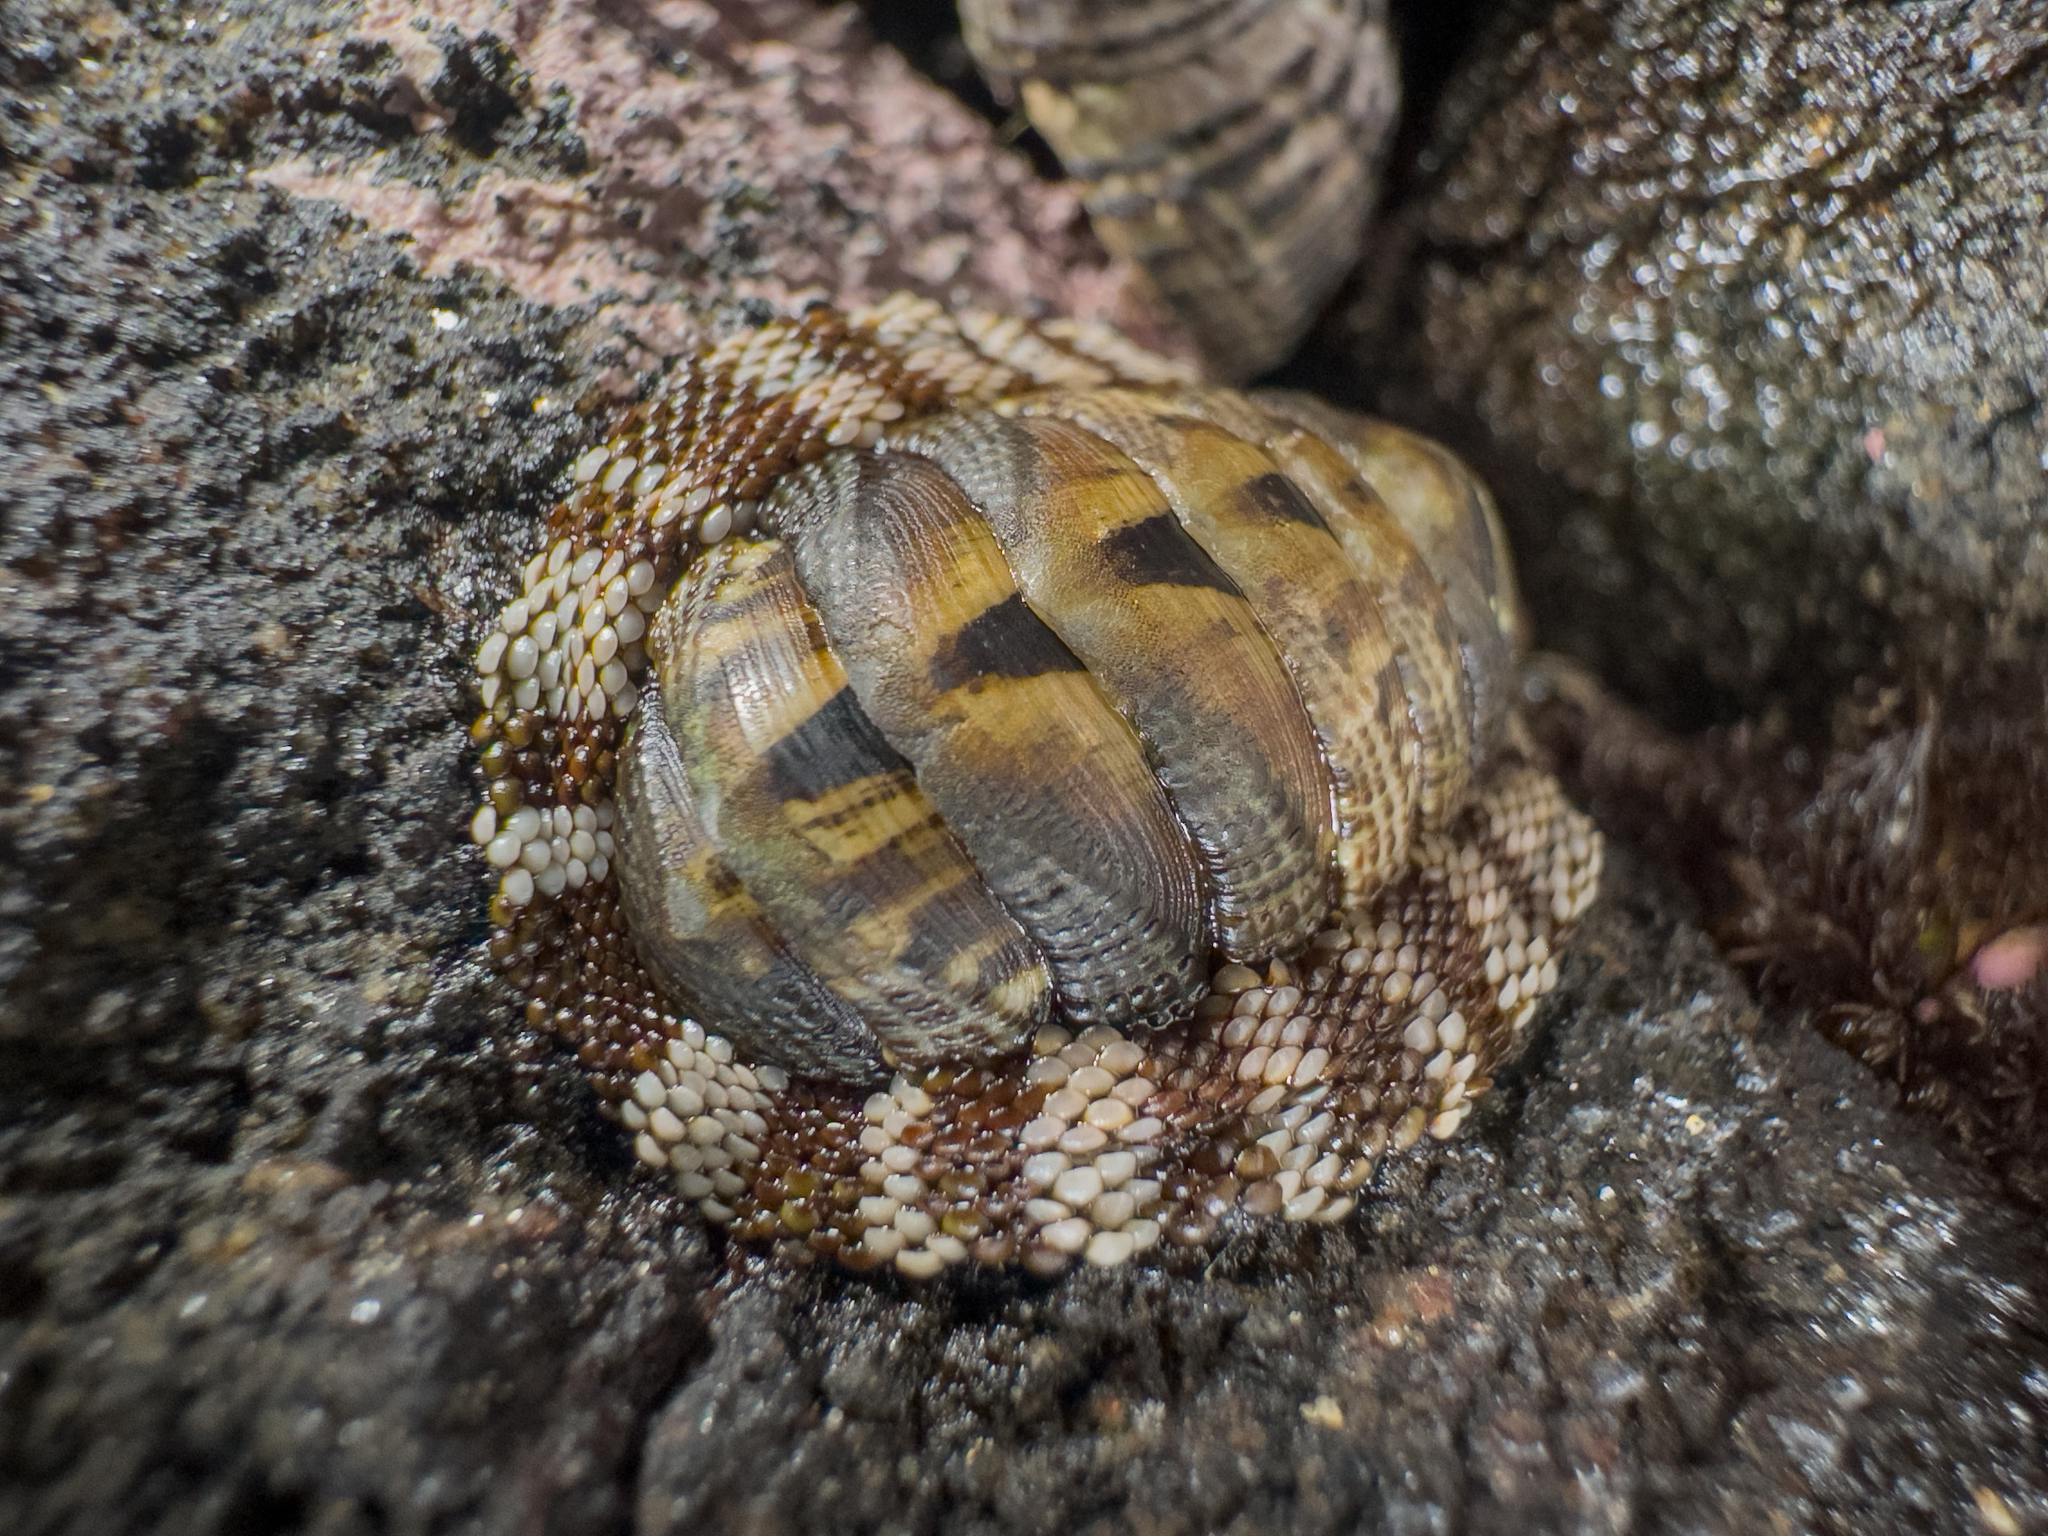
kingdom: Animalia
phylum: Mollusca
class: Polyplacophora
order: Chitonida
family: Chitonidae
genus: Sypharochiton
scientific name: Sypharochiton pelliserpentis
